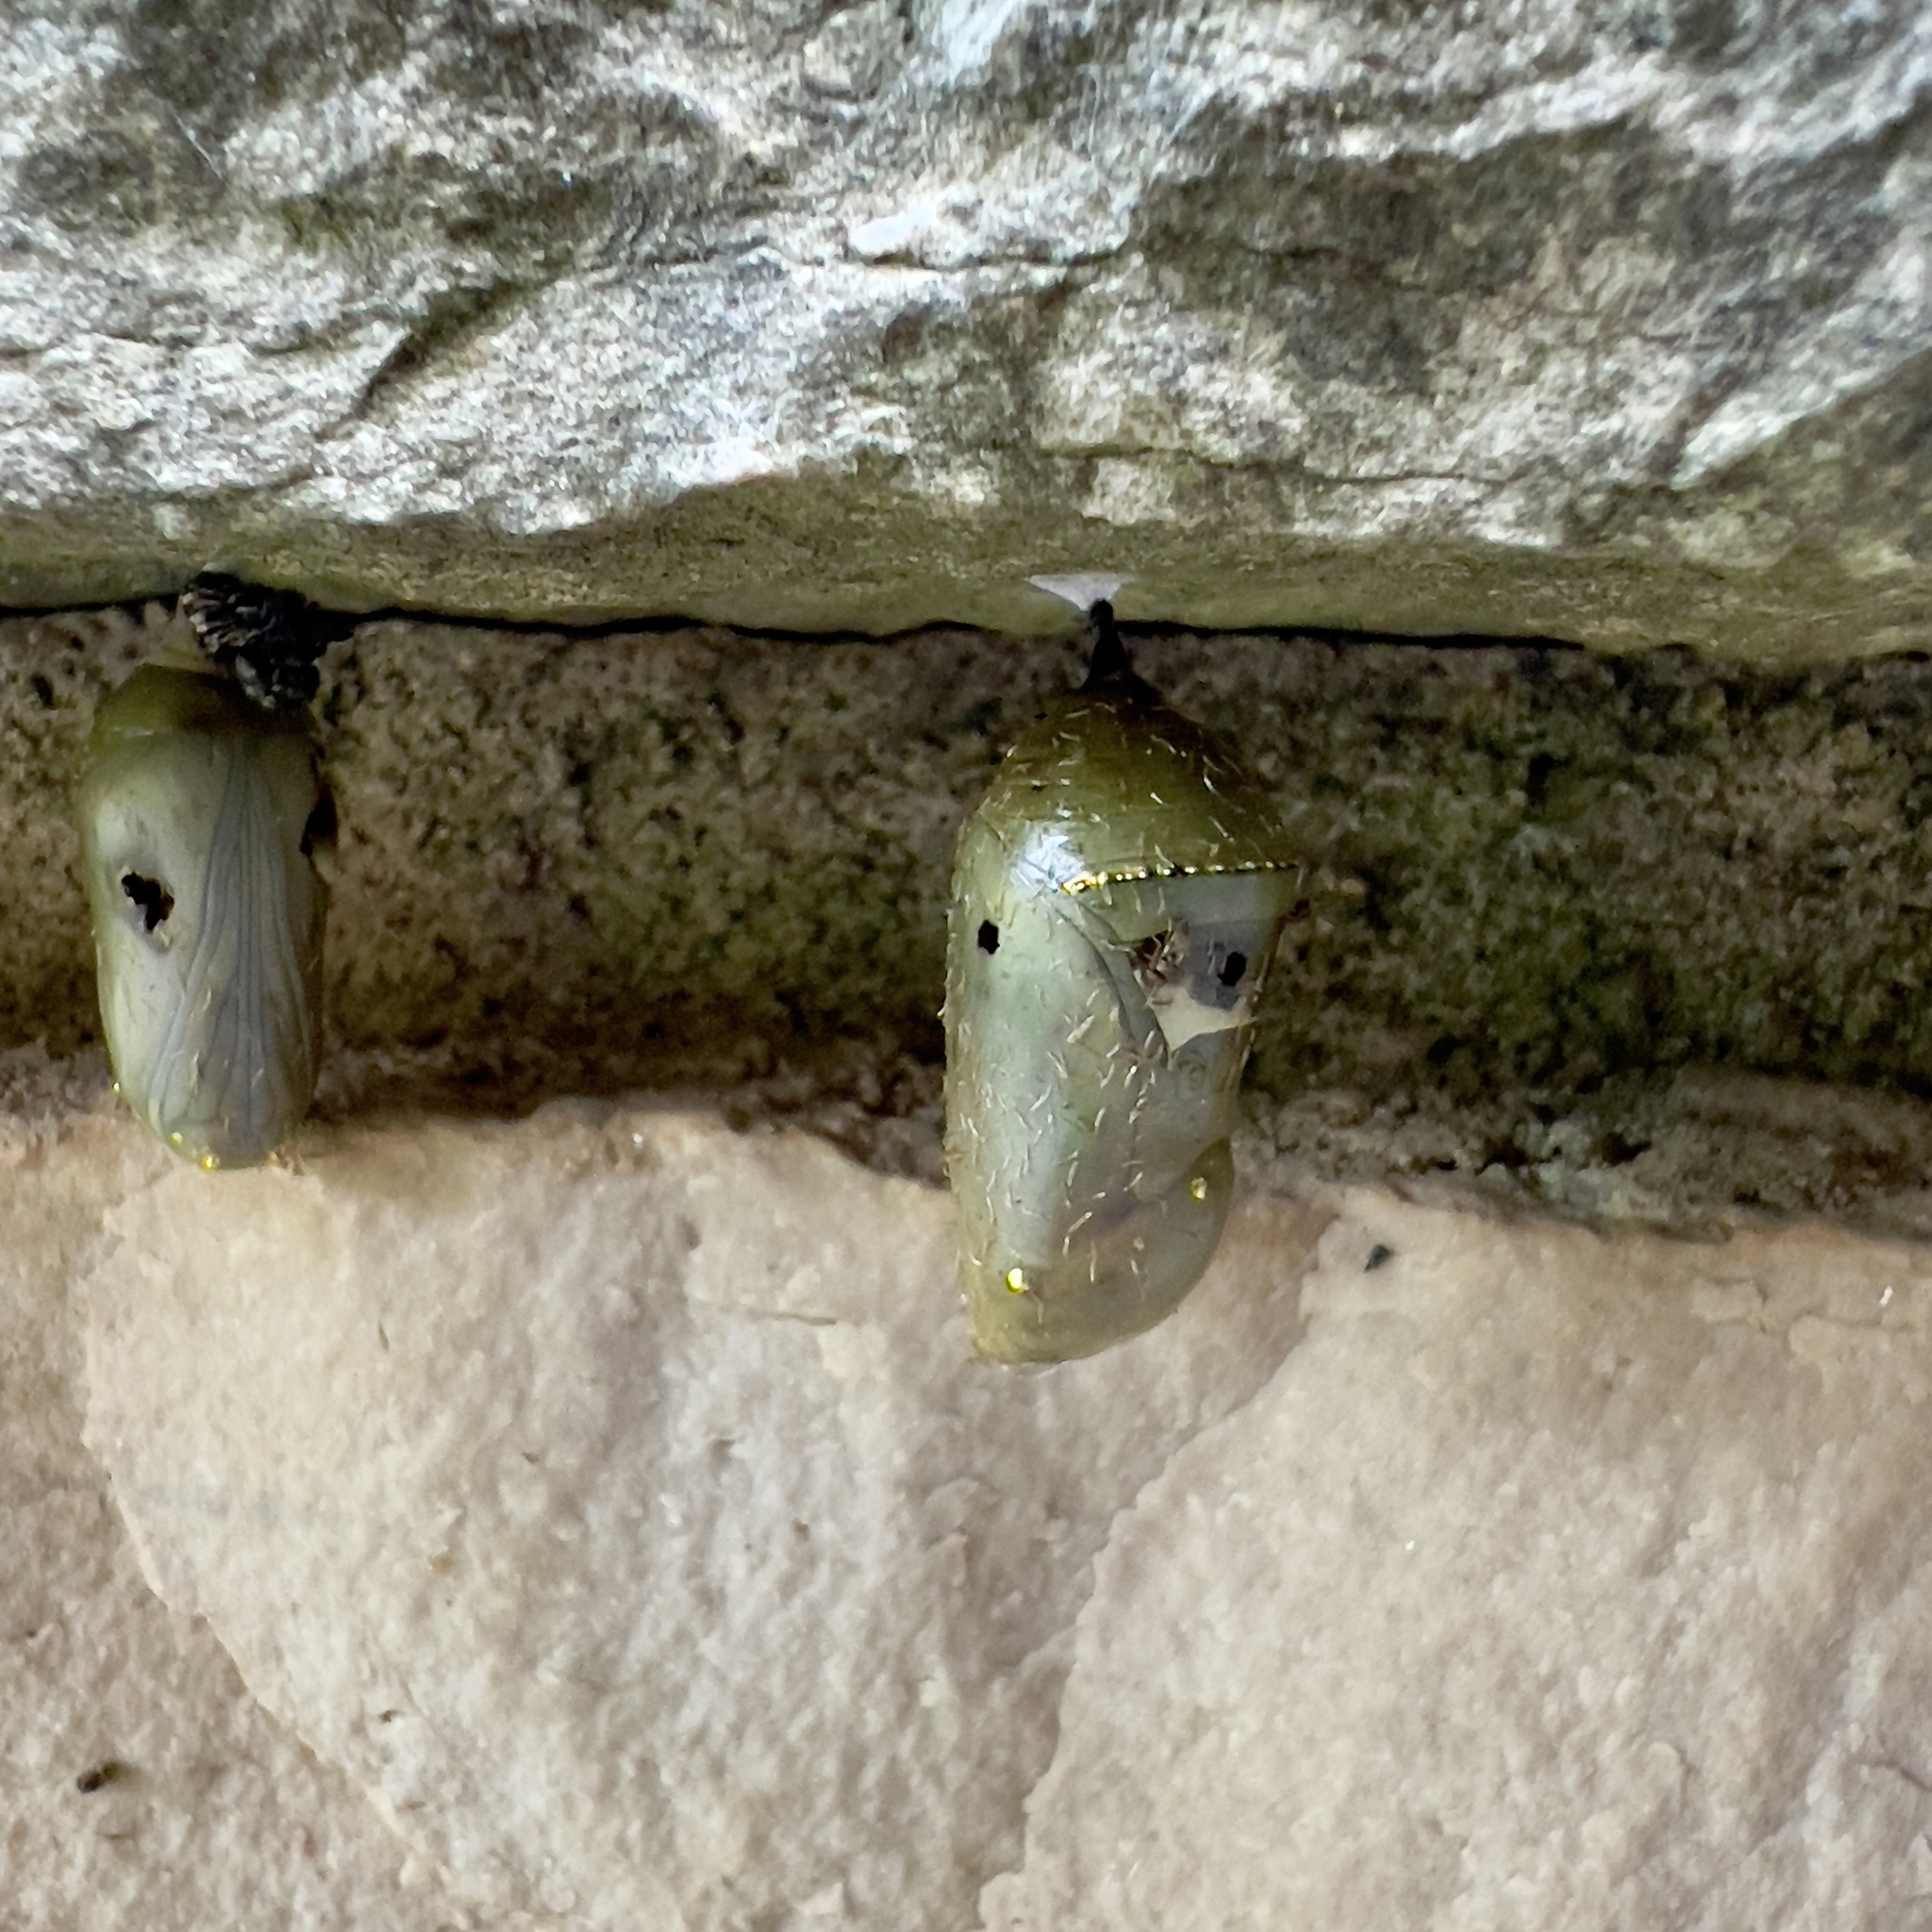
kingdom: Animalia
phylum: Arthropoda
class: Insecta
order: Lepidoptera
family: Nymphalidae
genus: Danaus
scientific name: Danaus plexippus
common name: Monarch
